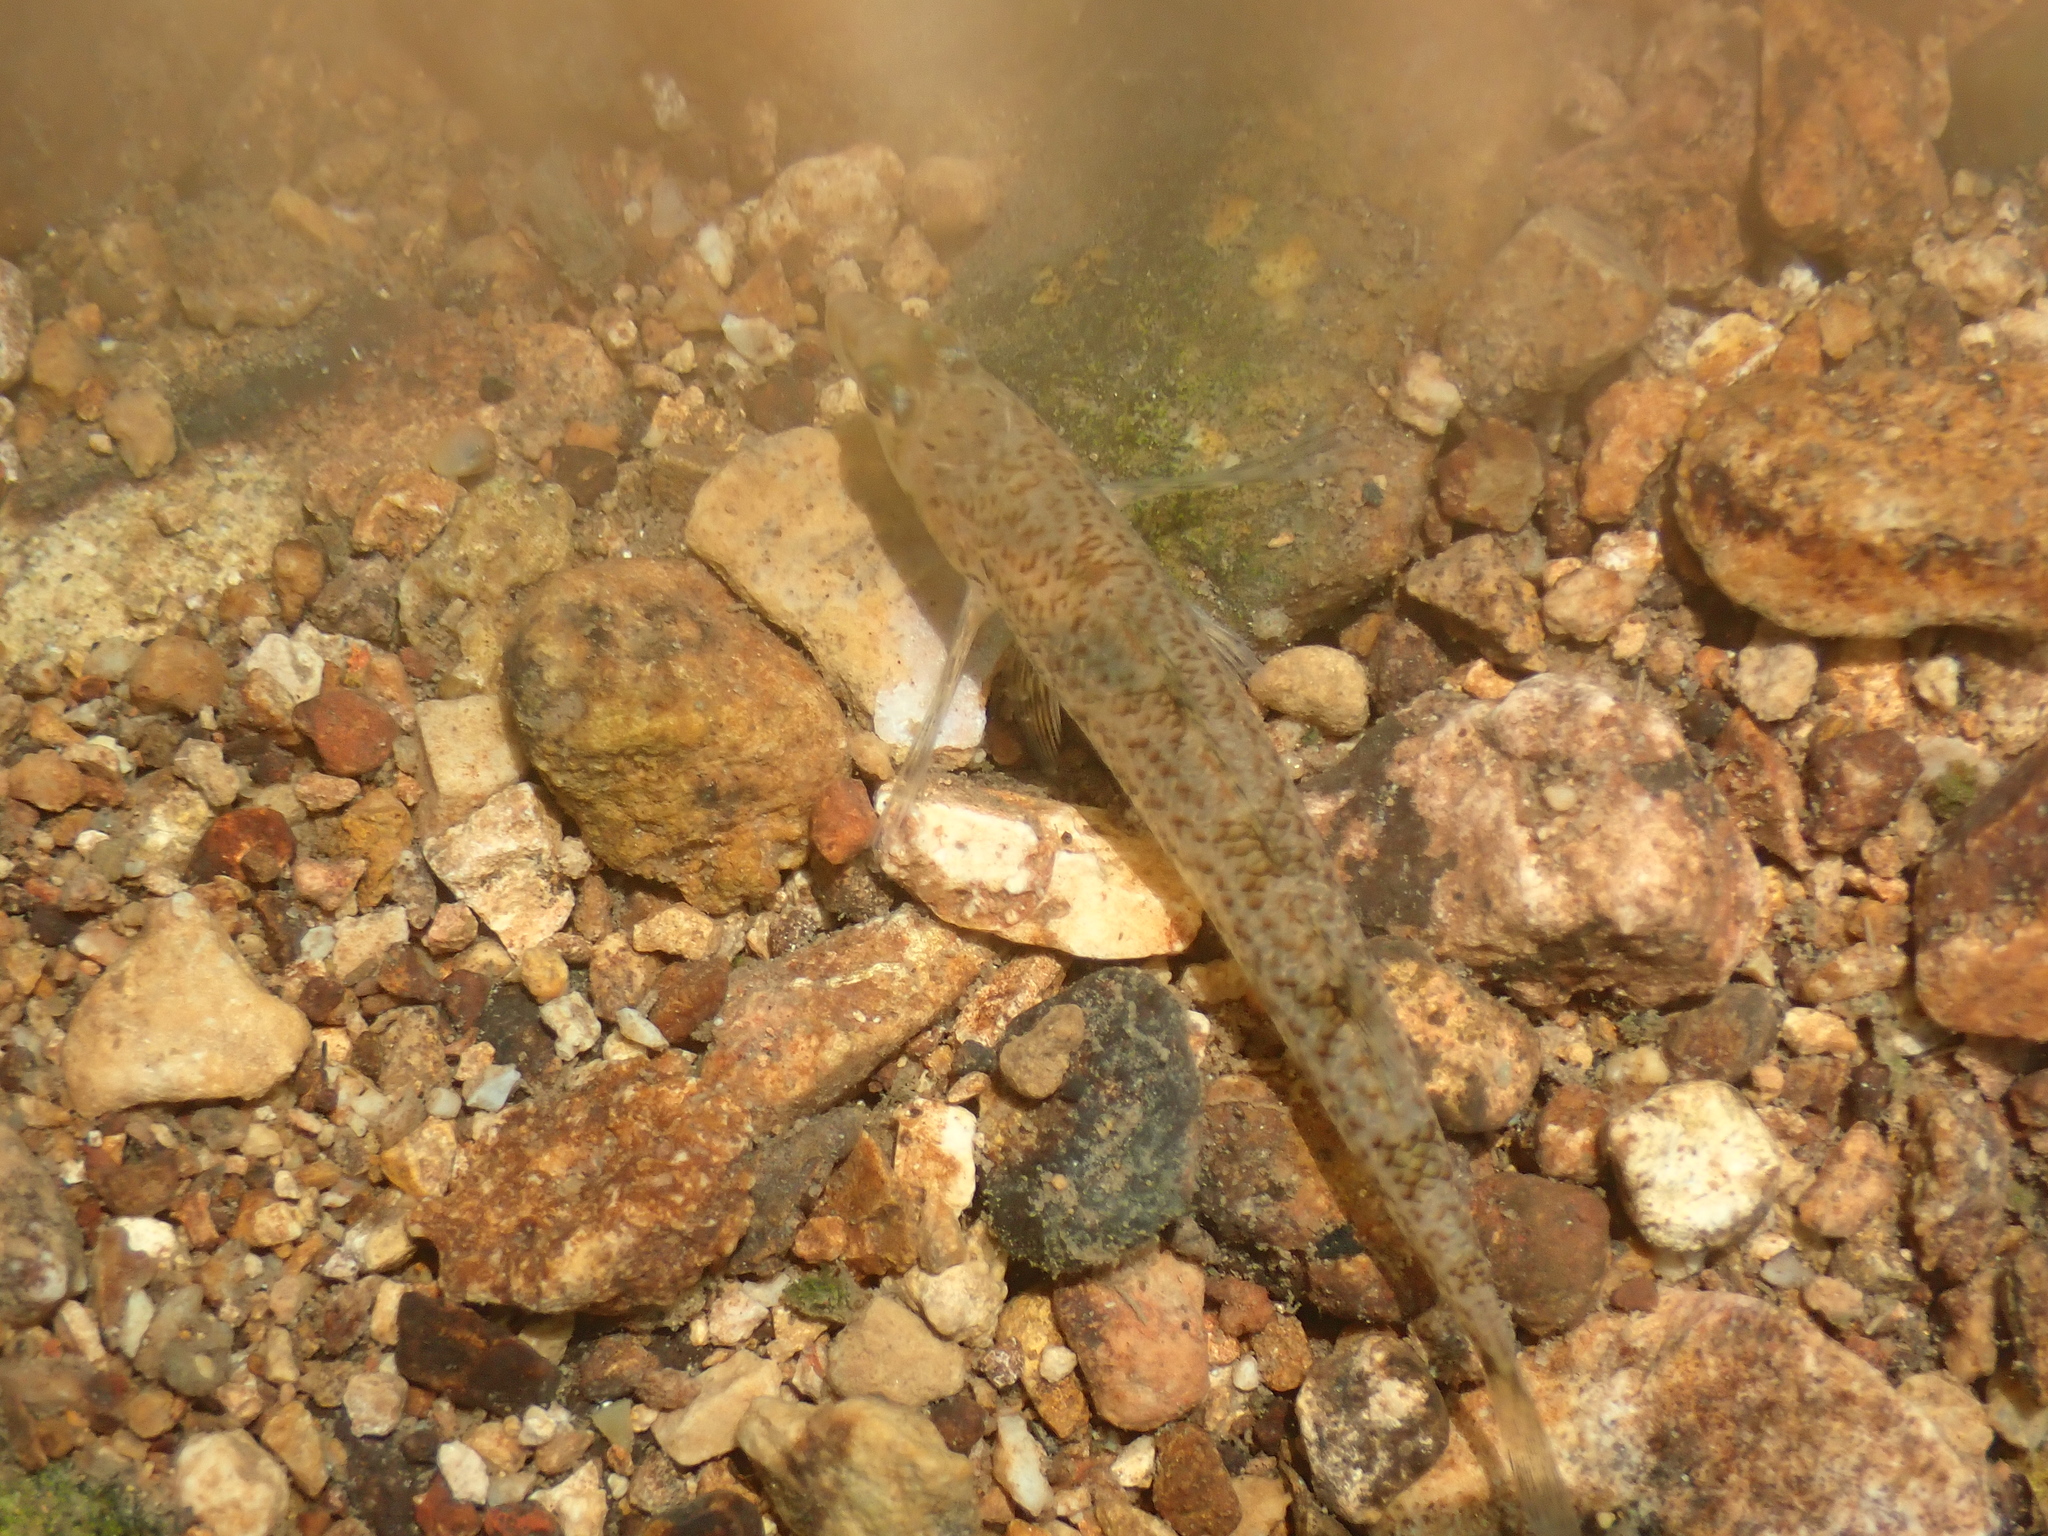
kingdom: Animalia
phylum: Chordata
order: Perciformes
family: Percidae
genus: Etheostoma
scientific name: Etheostoma caeruleum
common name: Rainbow darter
